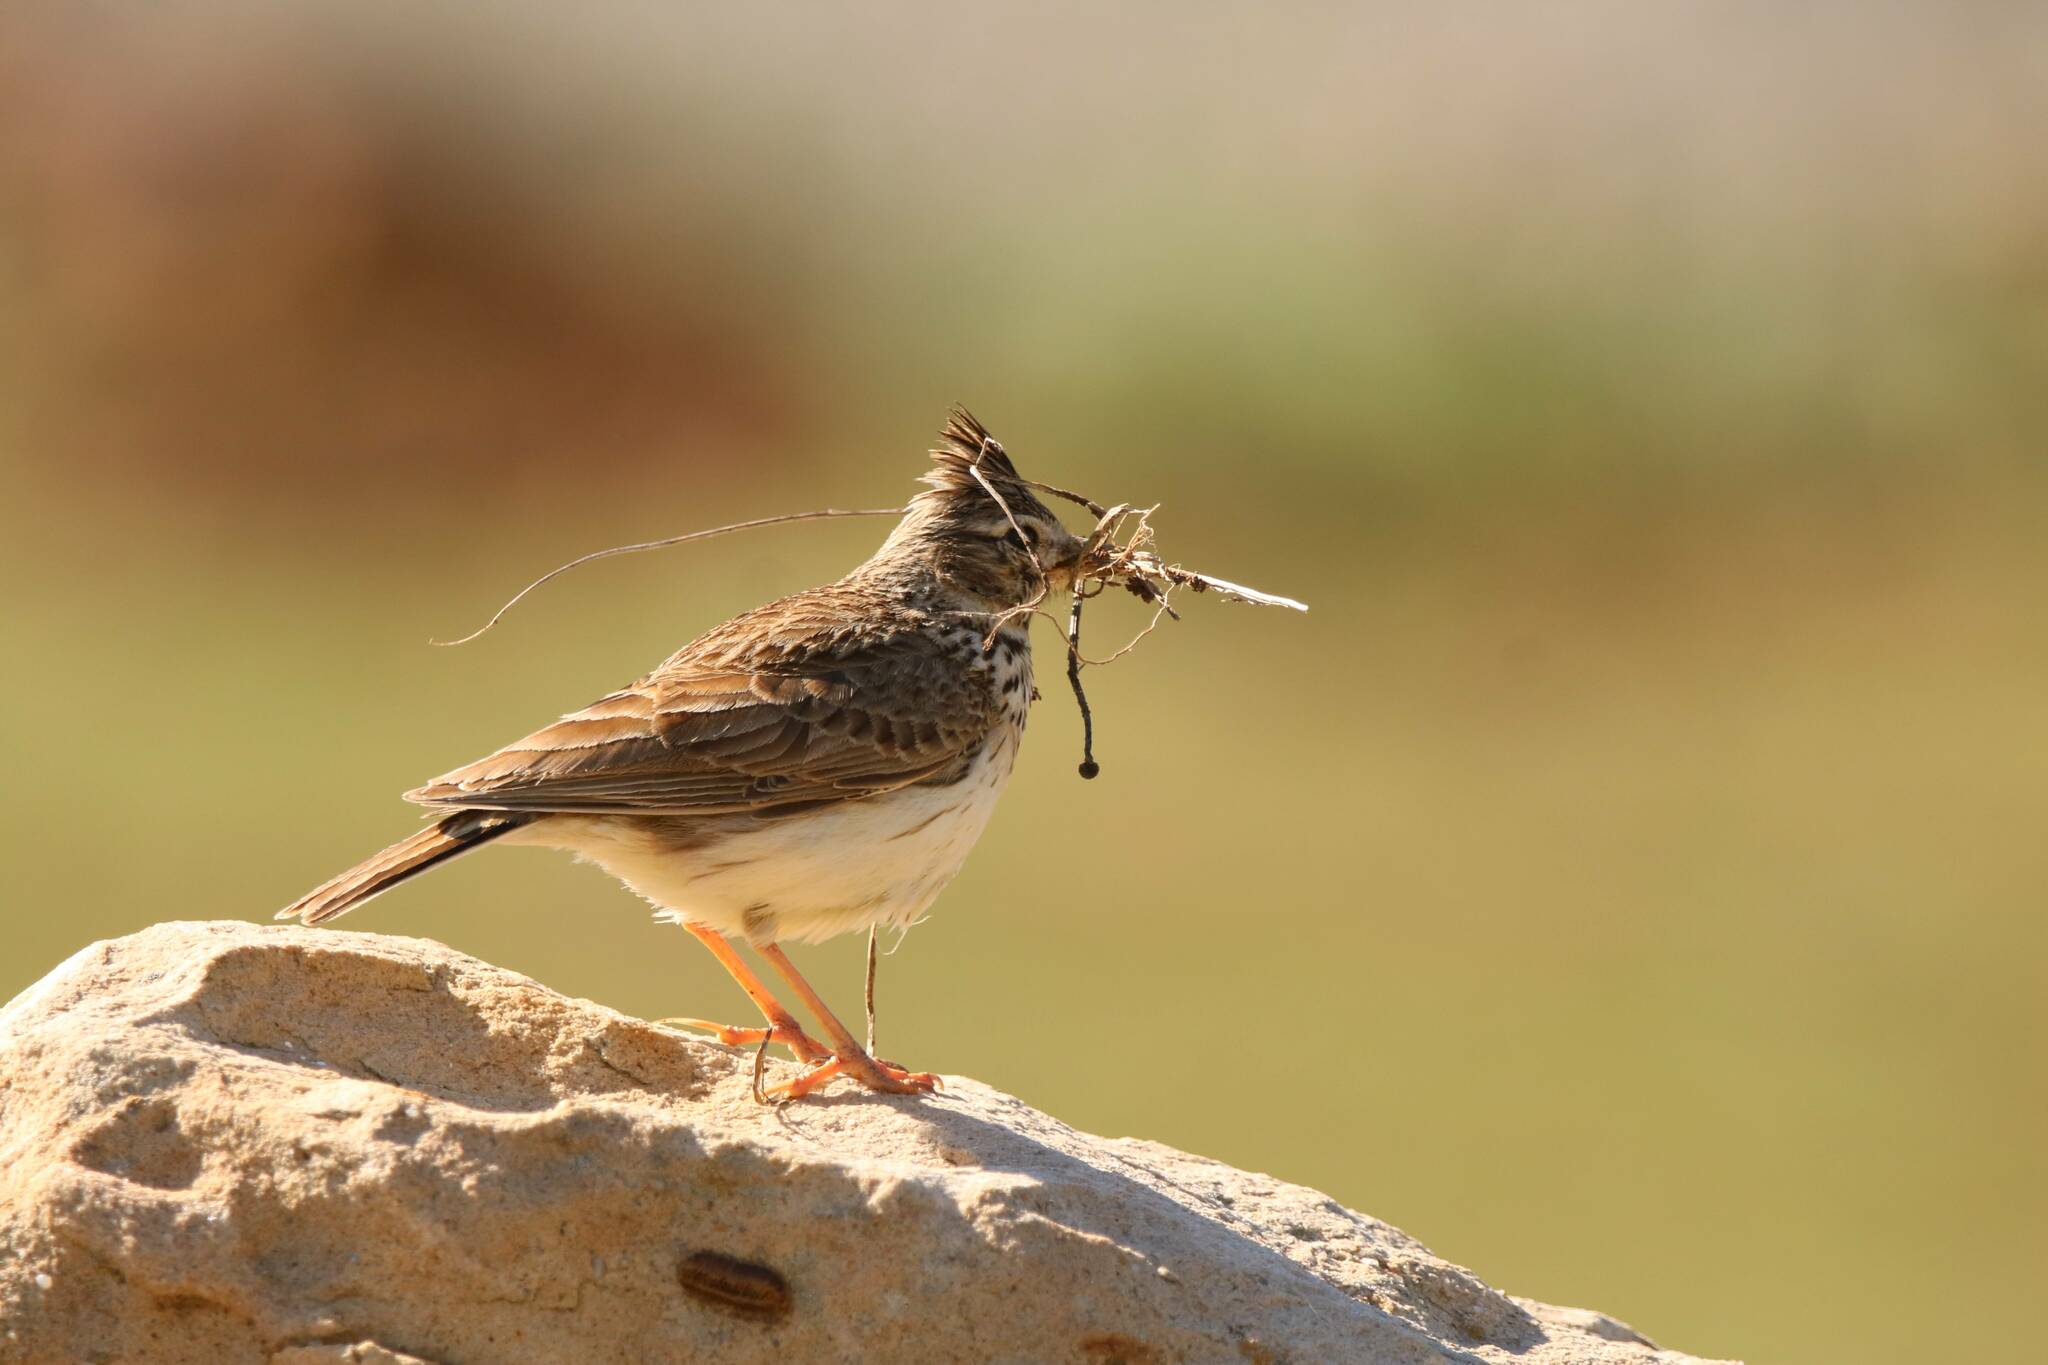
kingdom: Animalia
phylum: Chordata
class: Aves
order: Passeriformes
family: Alaudidae
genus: Galerida
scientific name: Galerida theklae
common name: Thekla lark
